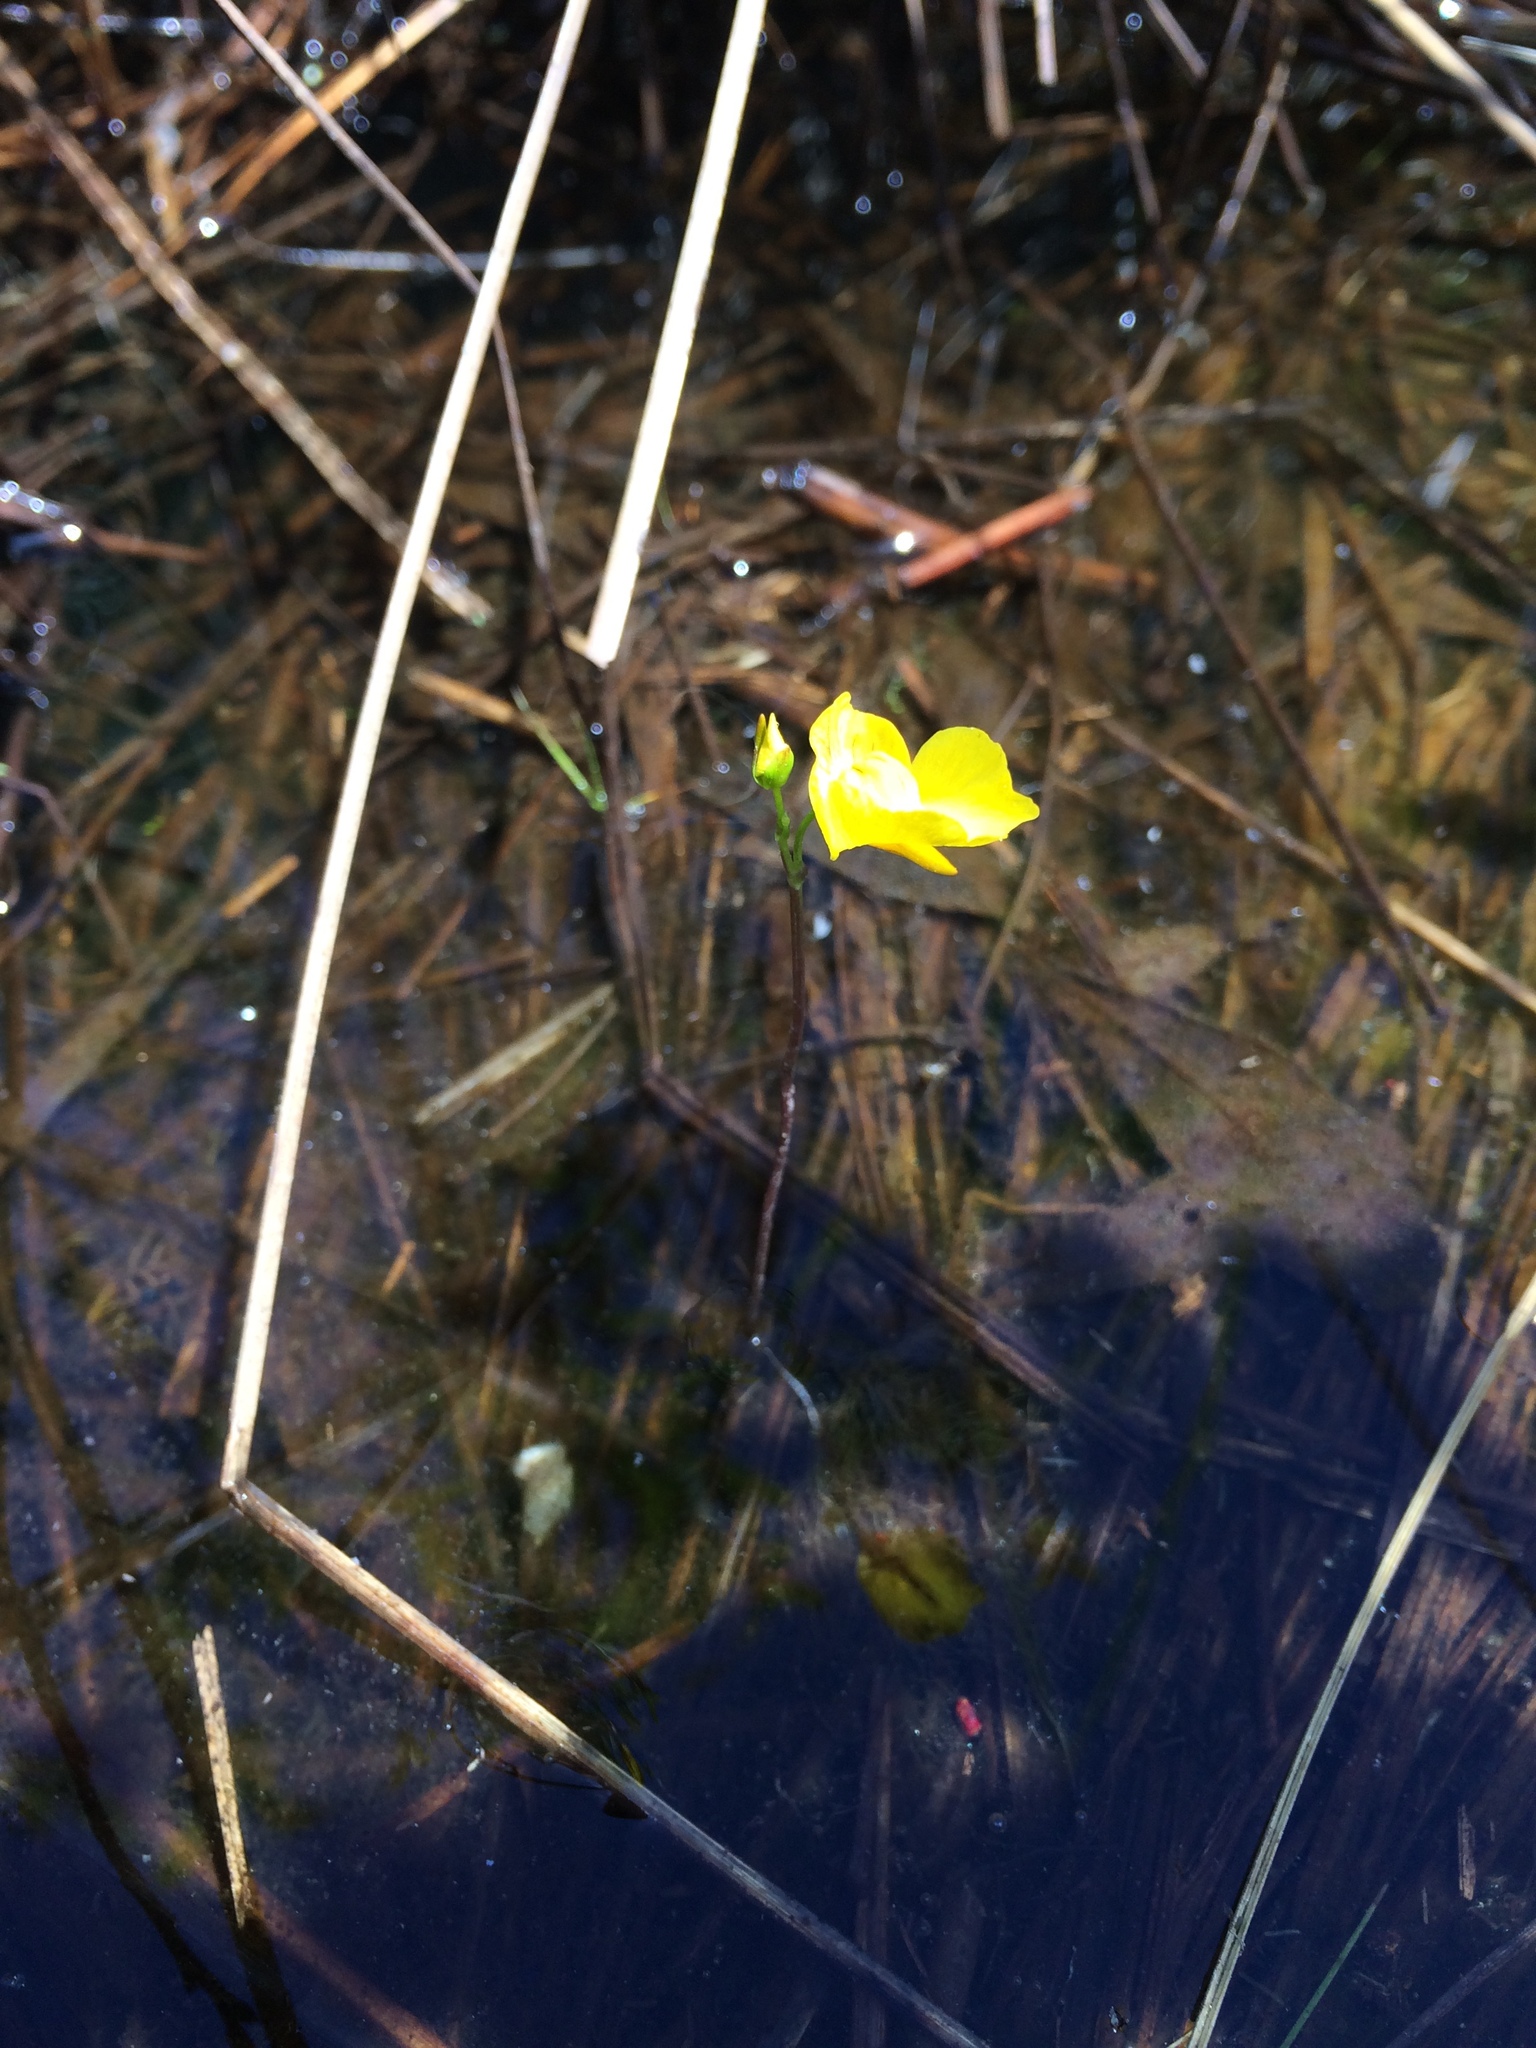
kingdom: Plantae
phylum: Tracheophyta
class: Magnoliopsida
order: Lamiales
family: Lentibulariaceae
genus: Utricularia
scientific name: Utricularia intermedia
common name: Intermediate bladderwort
